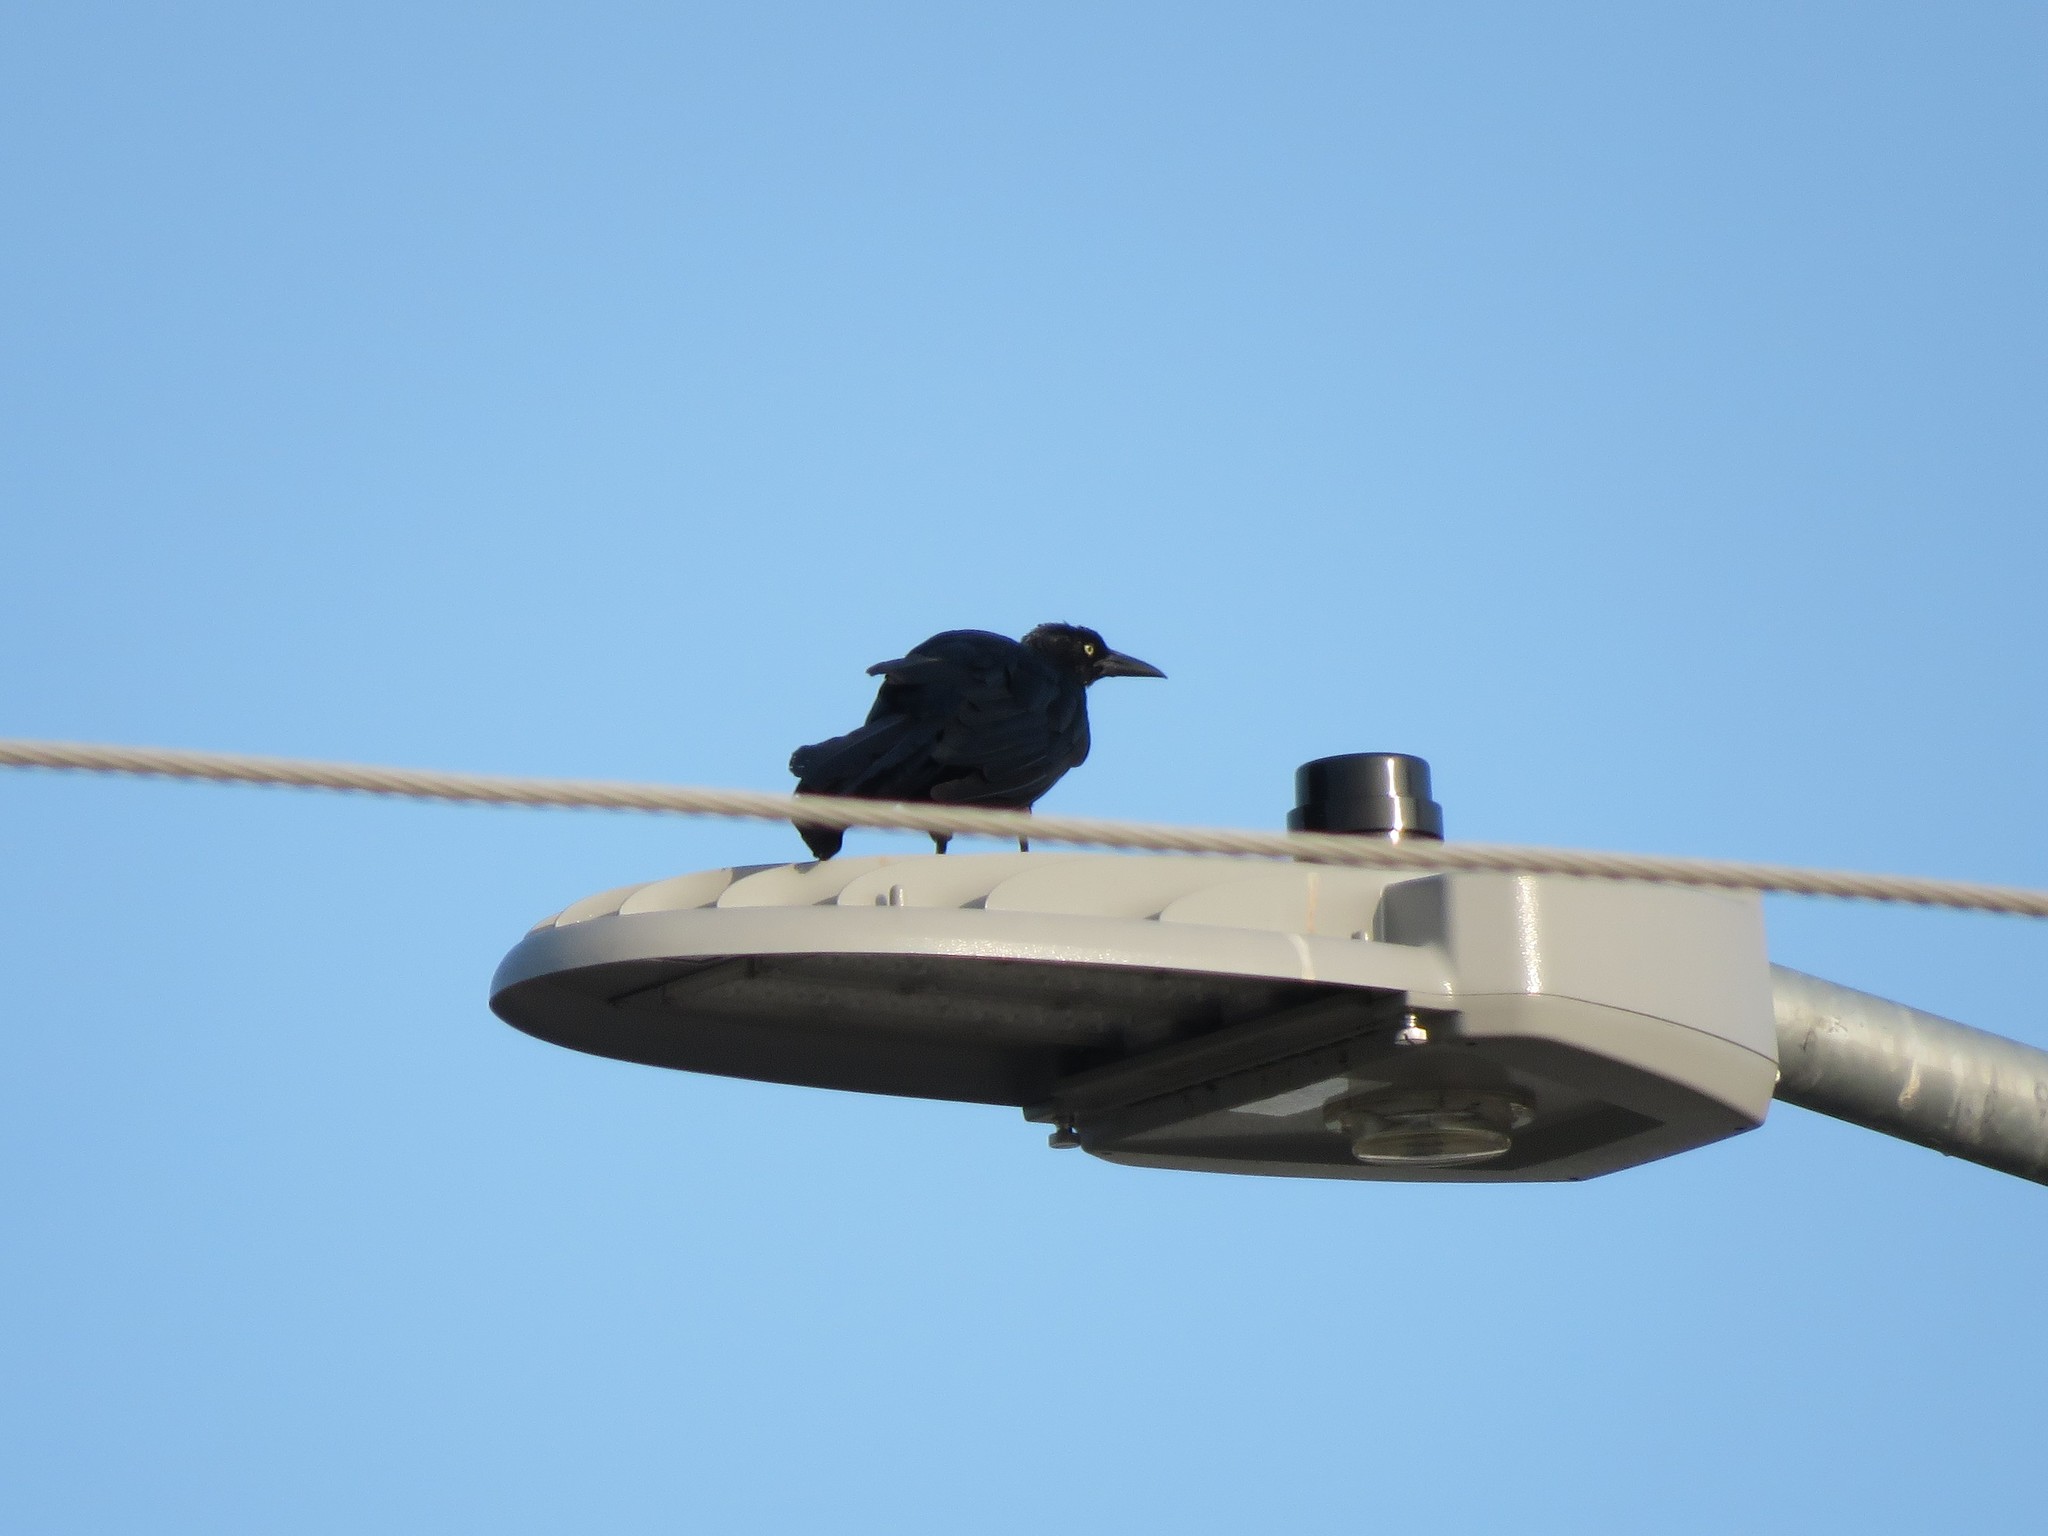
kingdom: Animalia
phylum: Chordata
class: Aves
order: Passeriformes
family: Icteridae
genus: Quiscalus
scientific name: Quiscalus mexicanus
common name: Great-tailed grackle
